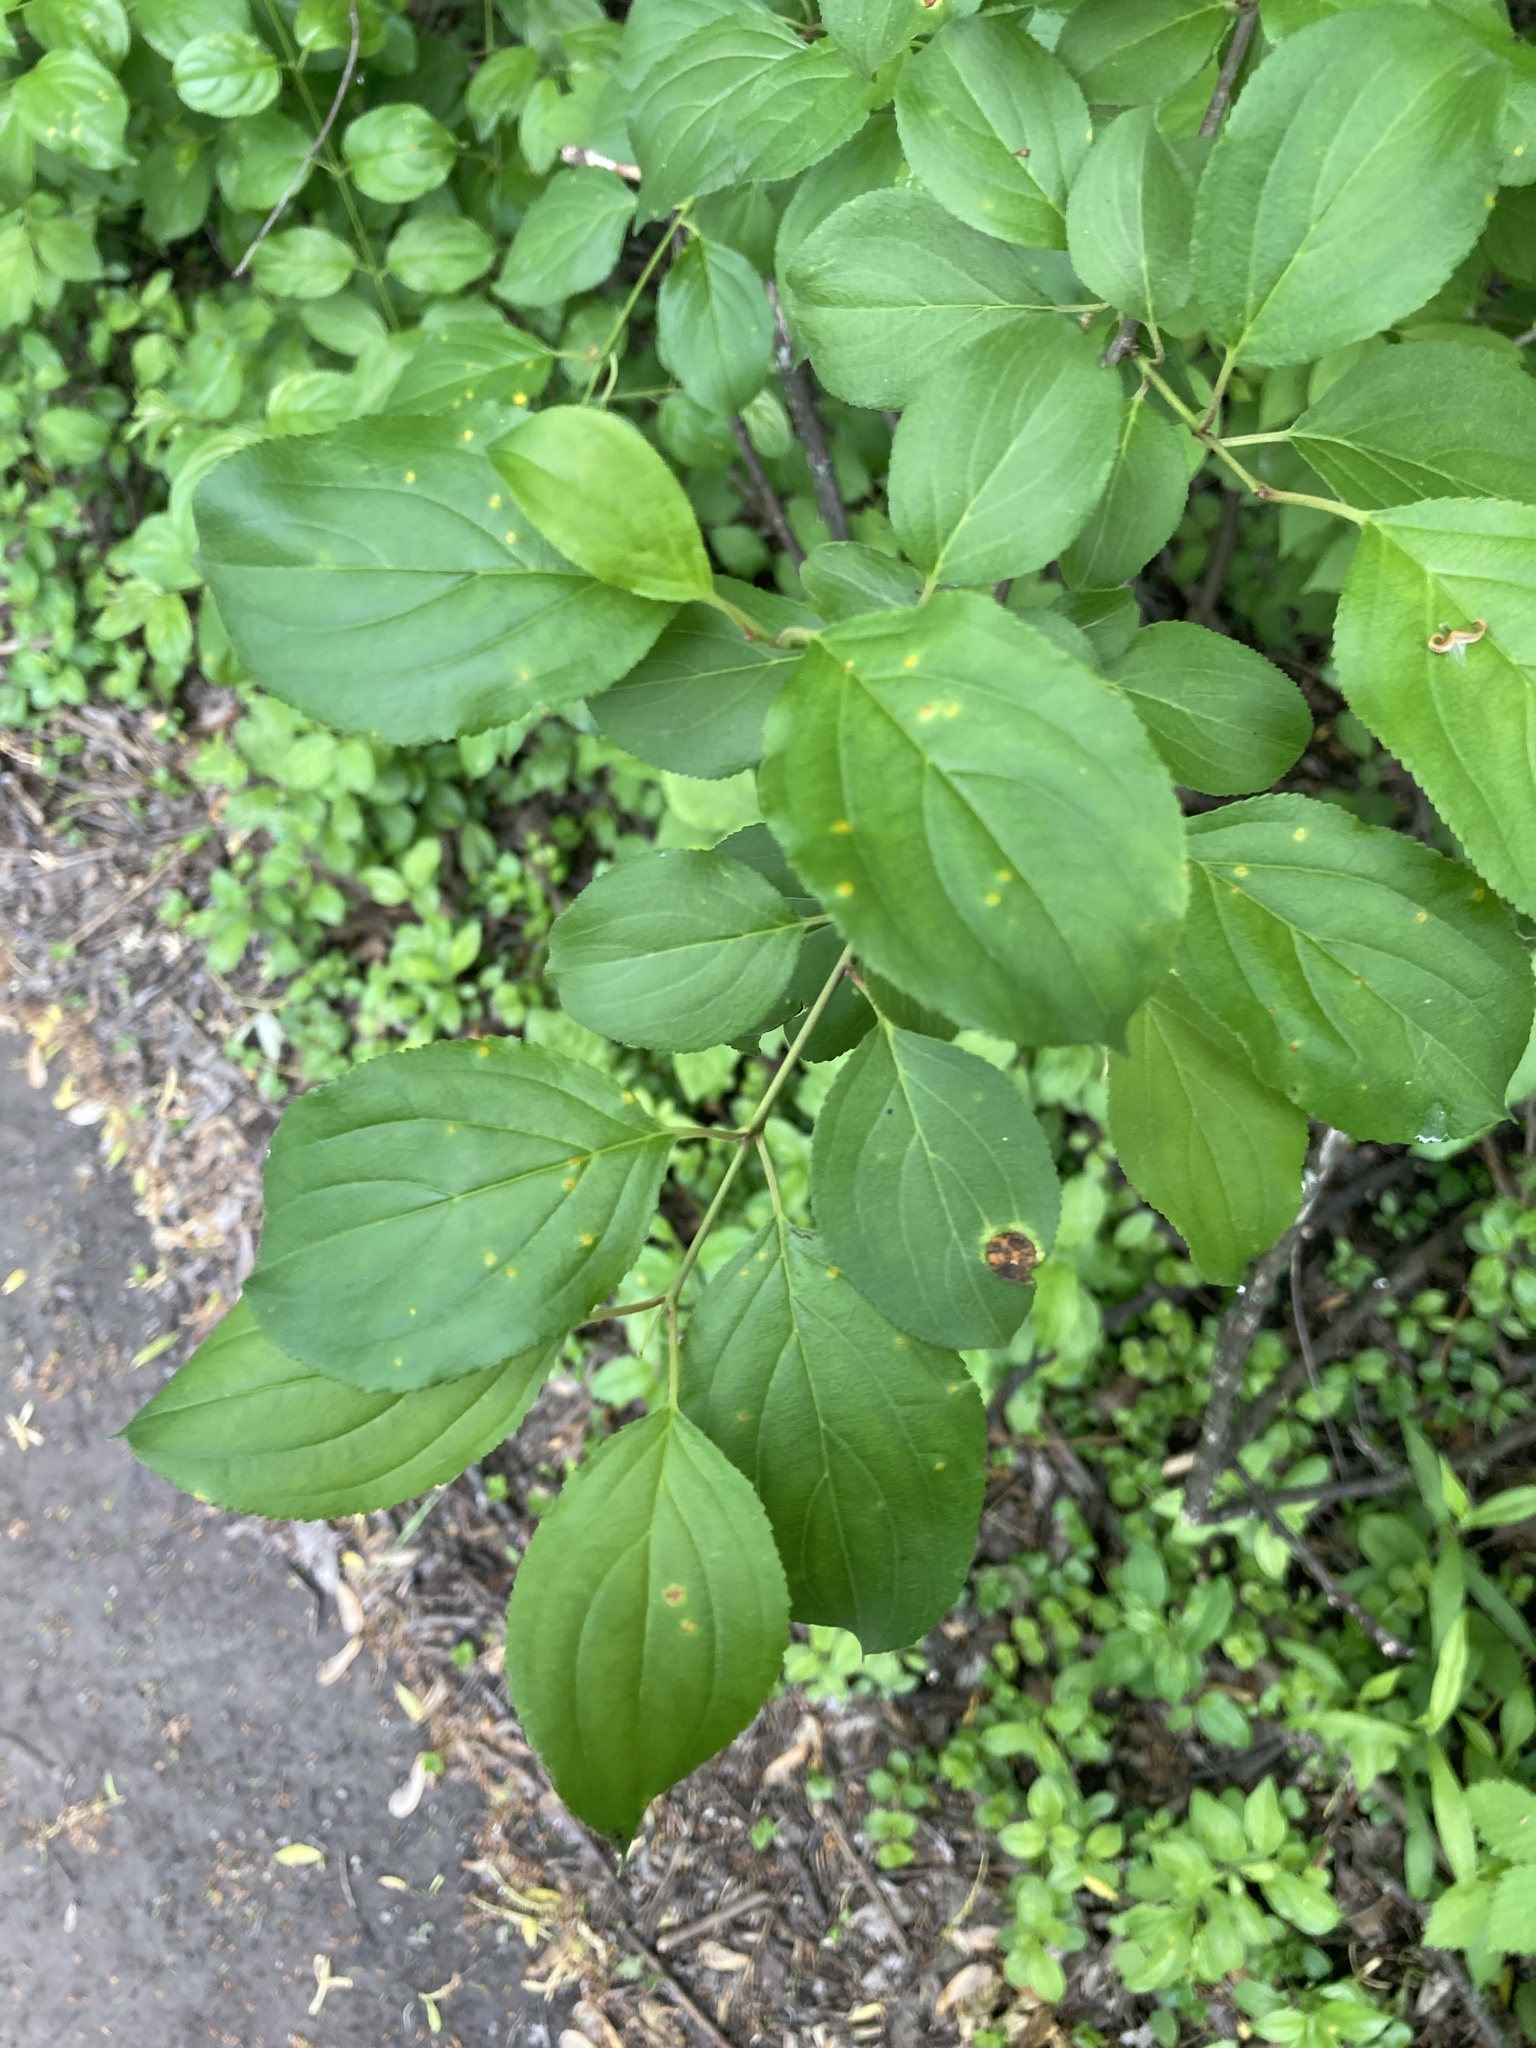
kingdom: Plantae
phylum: Tracheophyta
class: Magnoliopsida
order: Rosales
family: Rhamnaceae
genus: Rhamnus
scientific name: Rhamnus cathartica
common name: Common buckthorn
